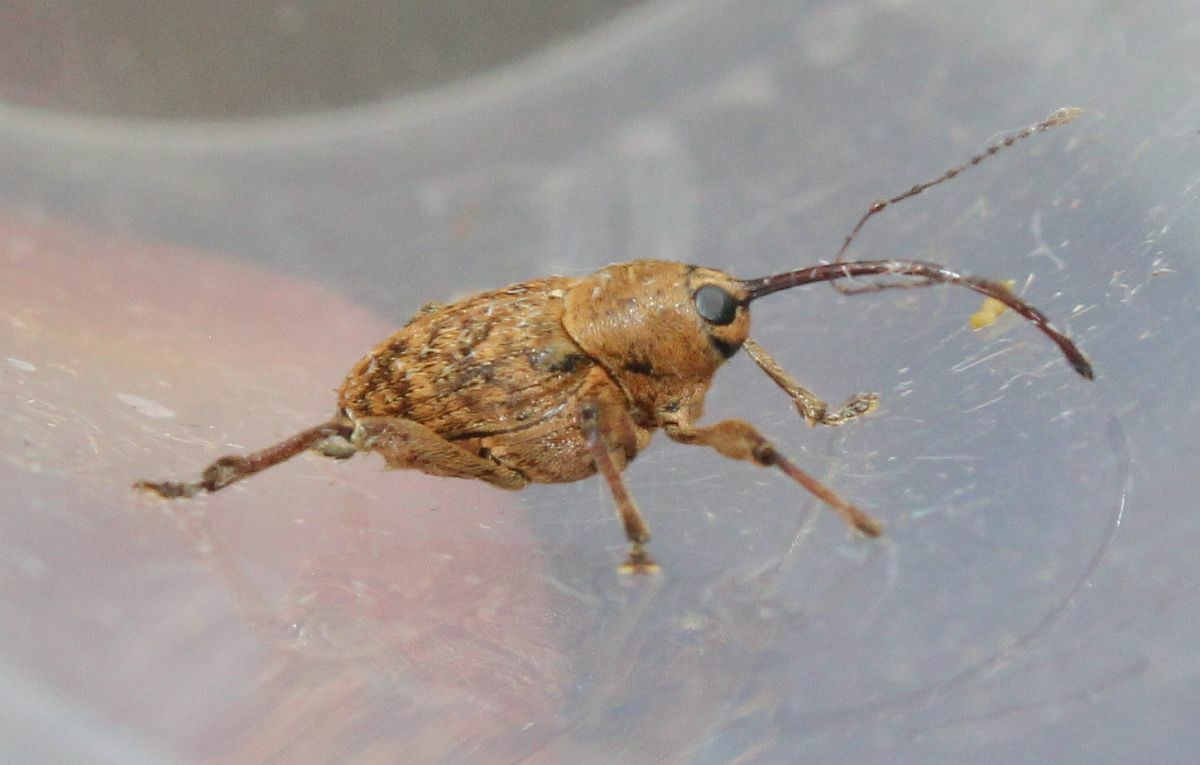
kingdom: Animalia
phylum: Arthropoda
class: Insecta
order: Coleoptera
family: Curculionidae
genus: Curculio
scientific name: Curculio glandium
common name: Acorn weevil
